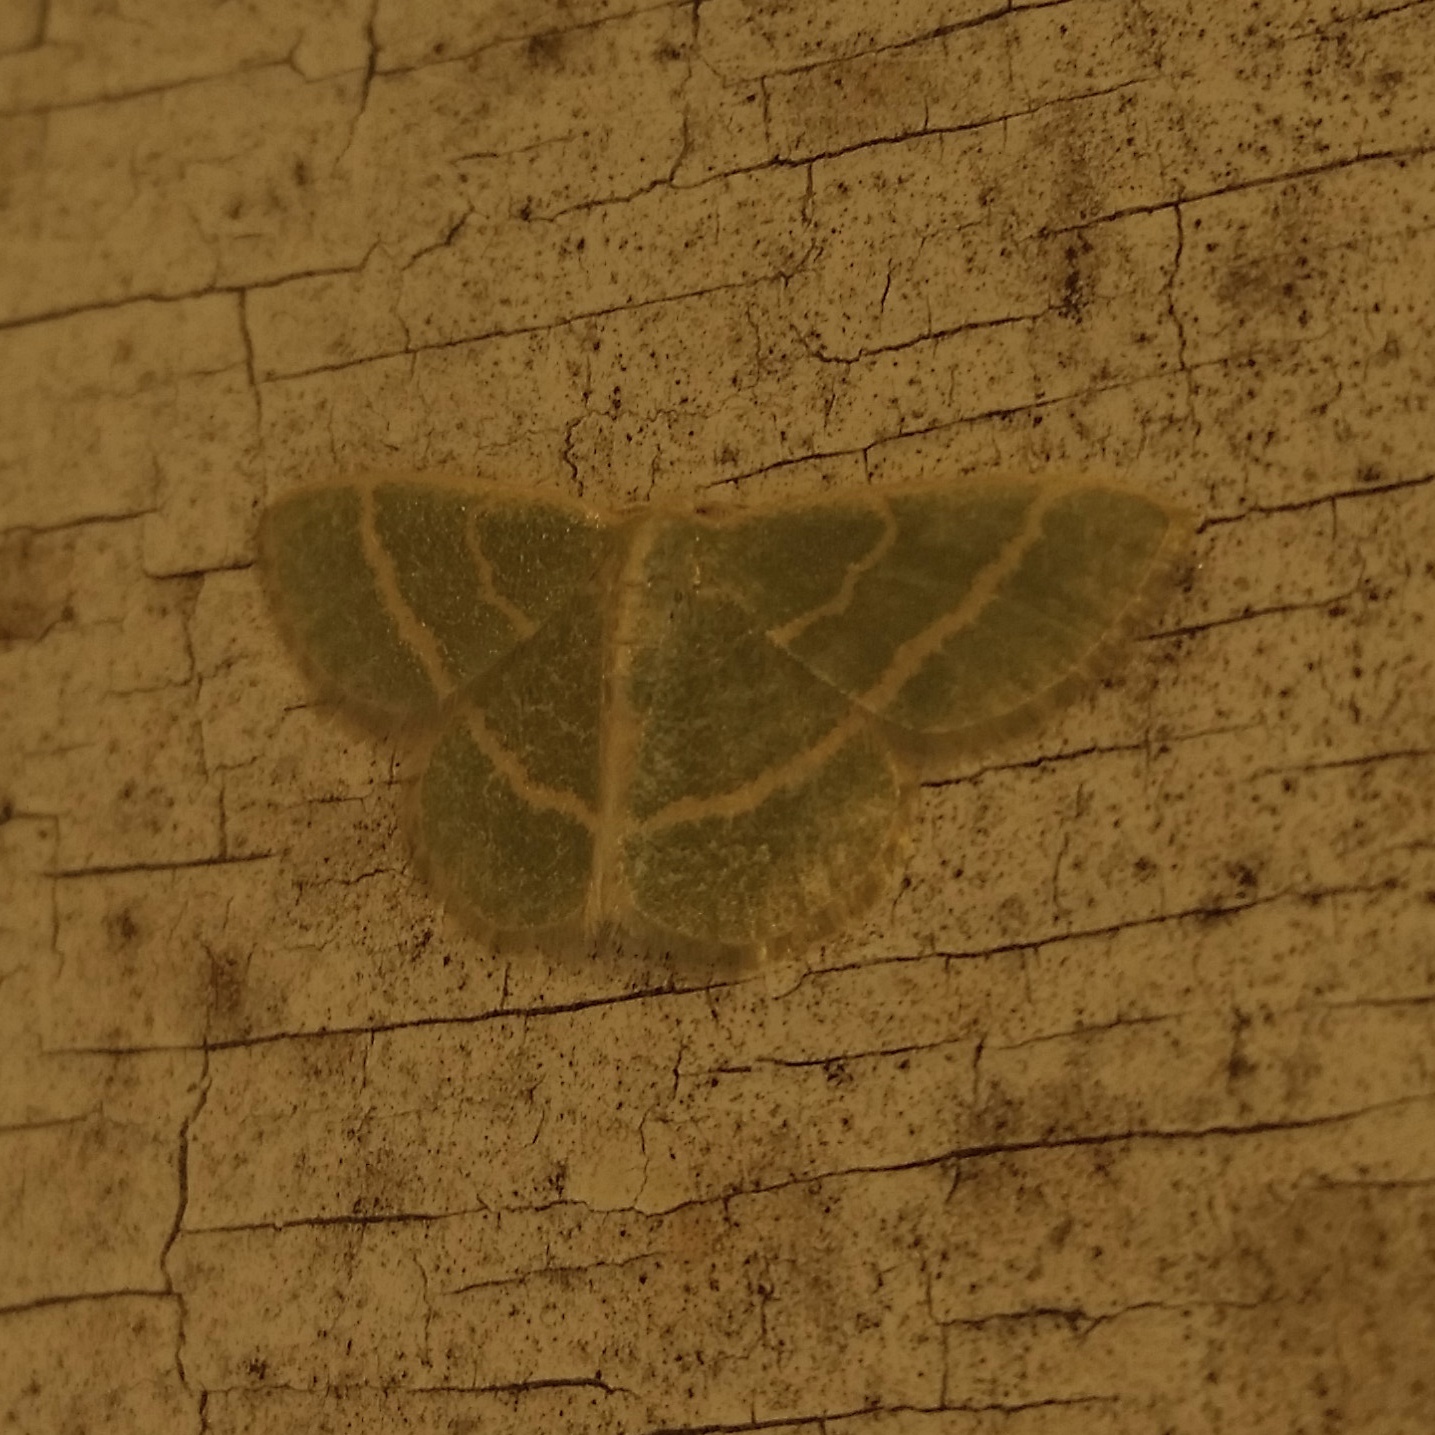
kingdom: Animalia
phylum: Arthropoda
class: Insecta
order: Lepidoptera
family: Geometridae
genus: Chlorochlamys
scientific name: Chlorochlamys chloroleucaria
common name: Blackberry looper
